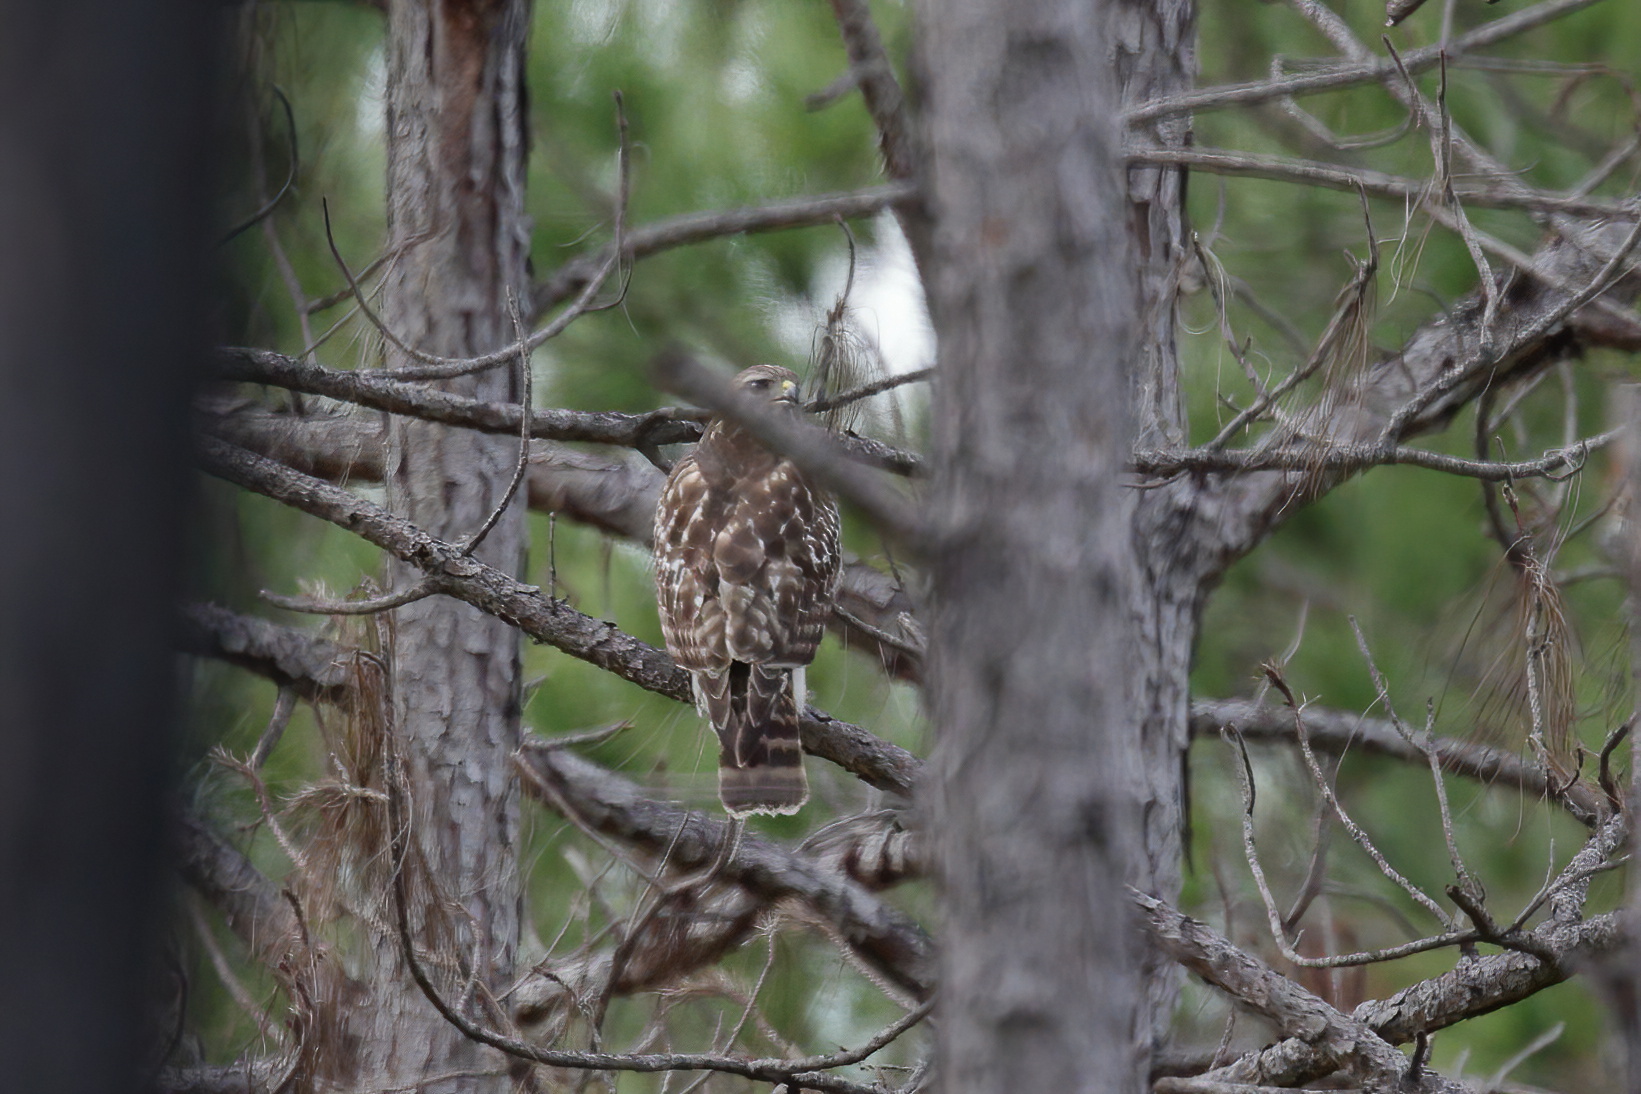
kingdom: Animalia
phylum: Chordata
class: Aves
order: Accipitriformes
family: Accipitridae
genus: Buteo
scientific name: Buteo lineatus
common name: Red-shouldered hawk
